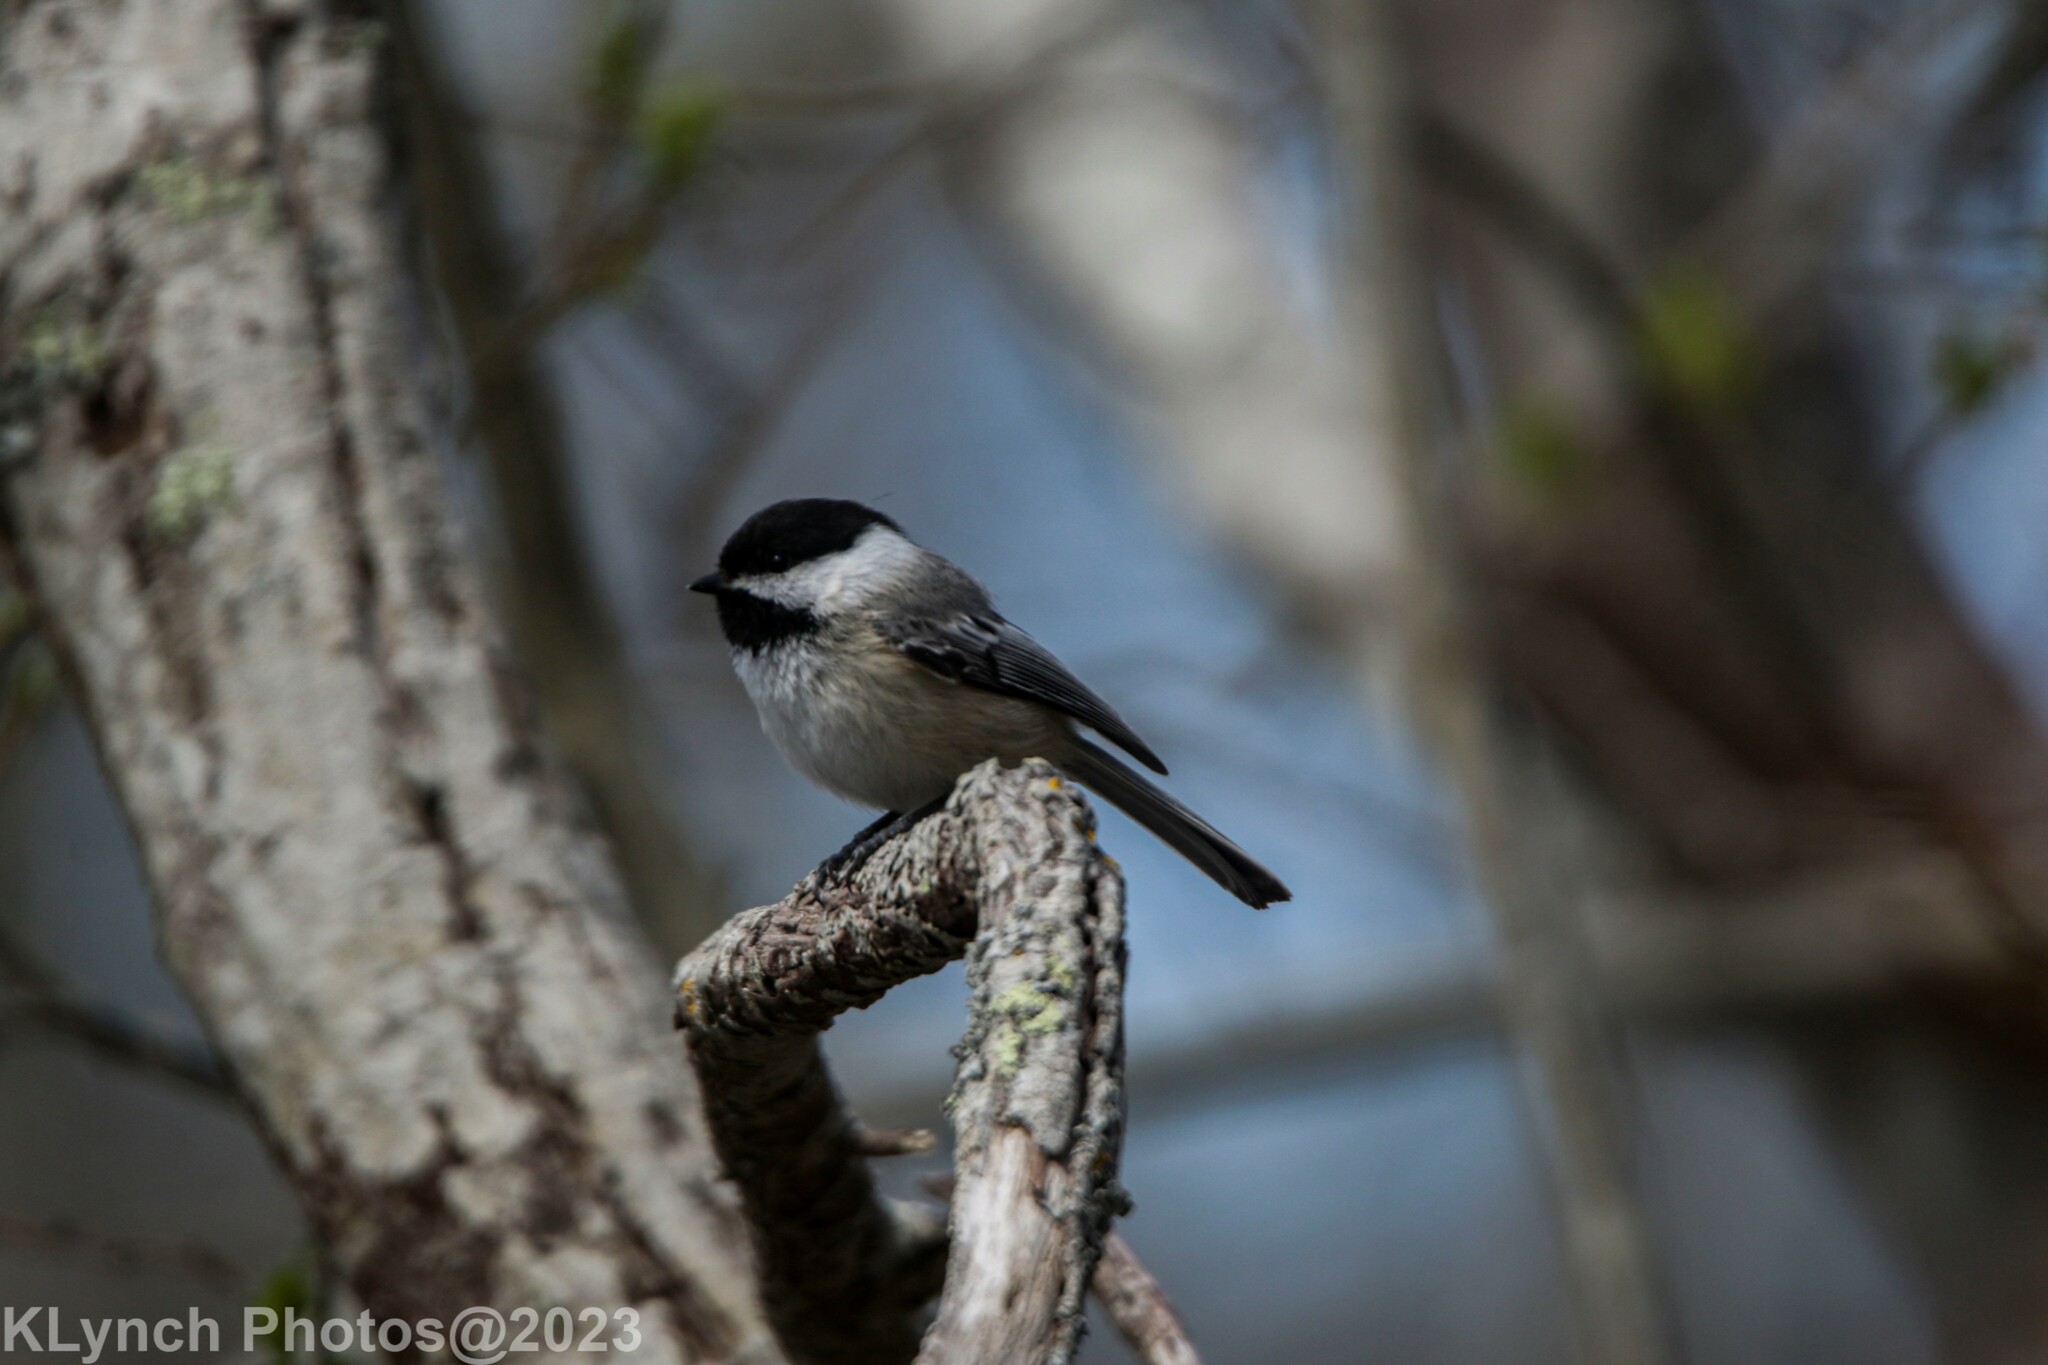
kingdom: Animalia
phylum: Chordata
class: Aves
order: Passeriformes
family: Paridae
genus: Poecile
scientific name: Poecile atricapillus
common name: Black-capped chickadee
